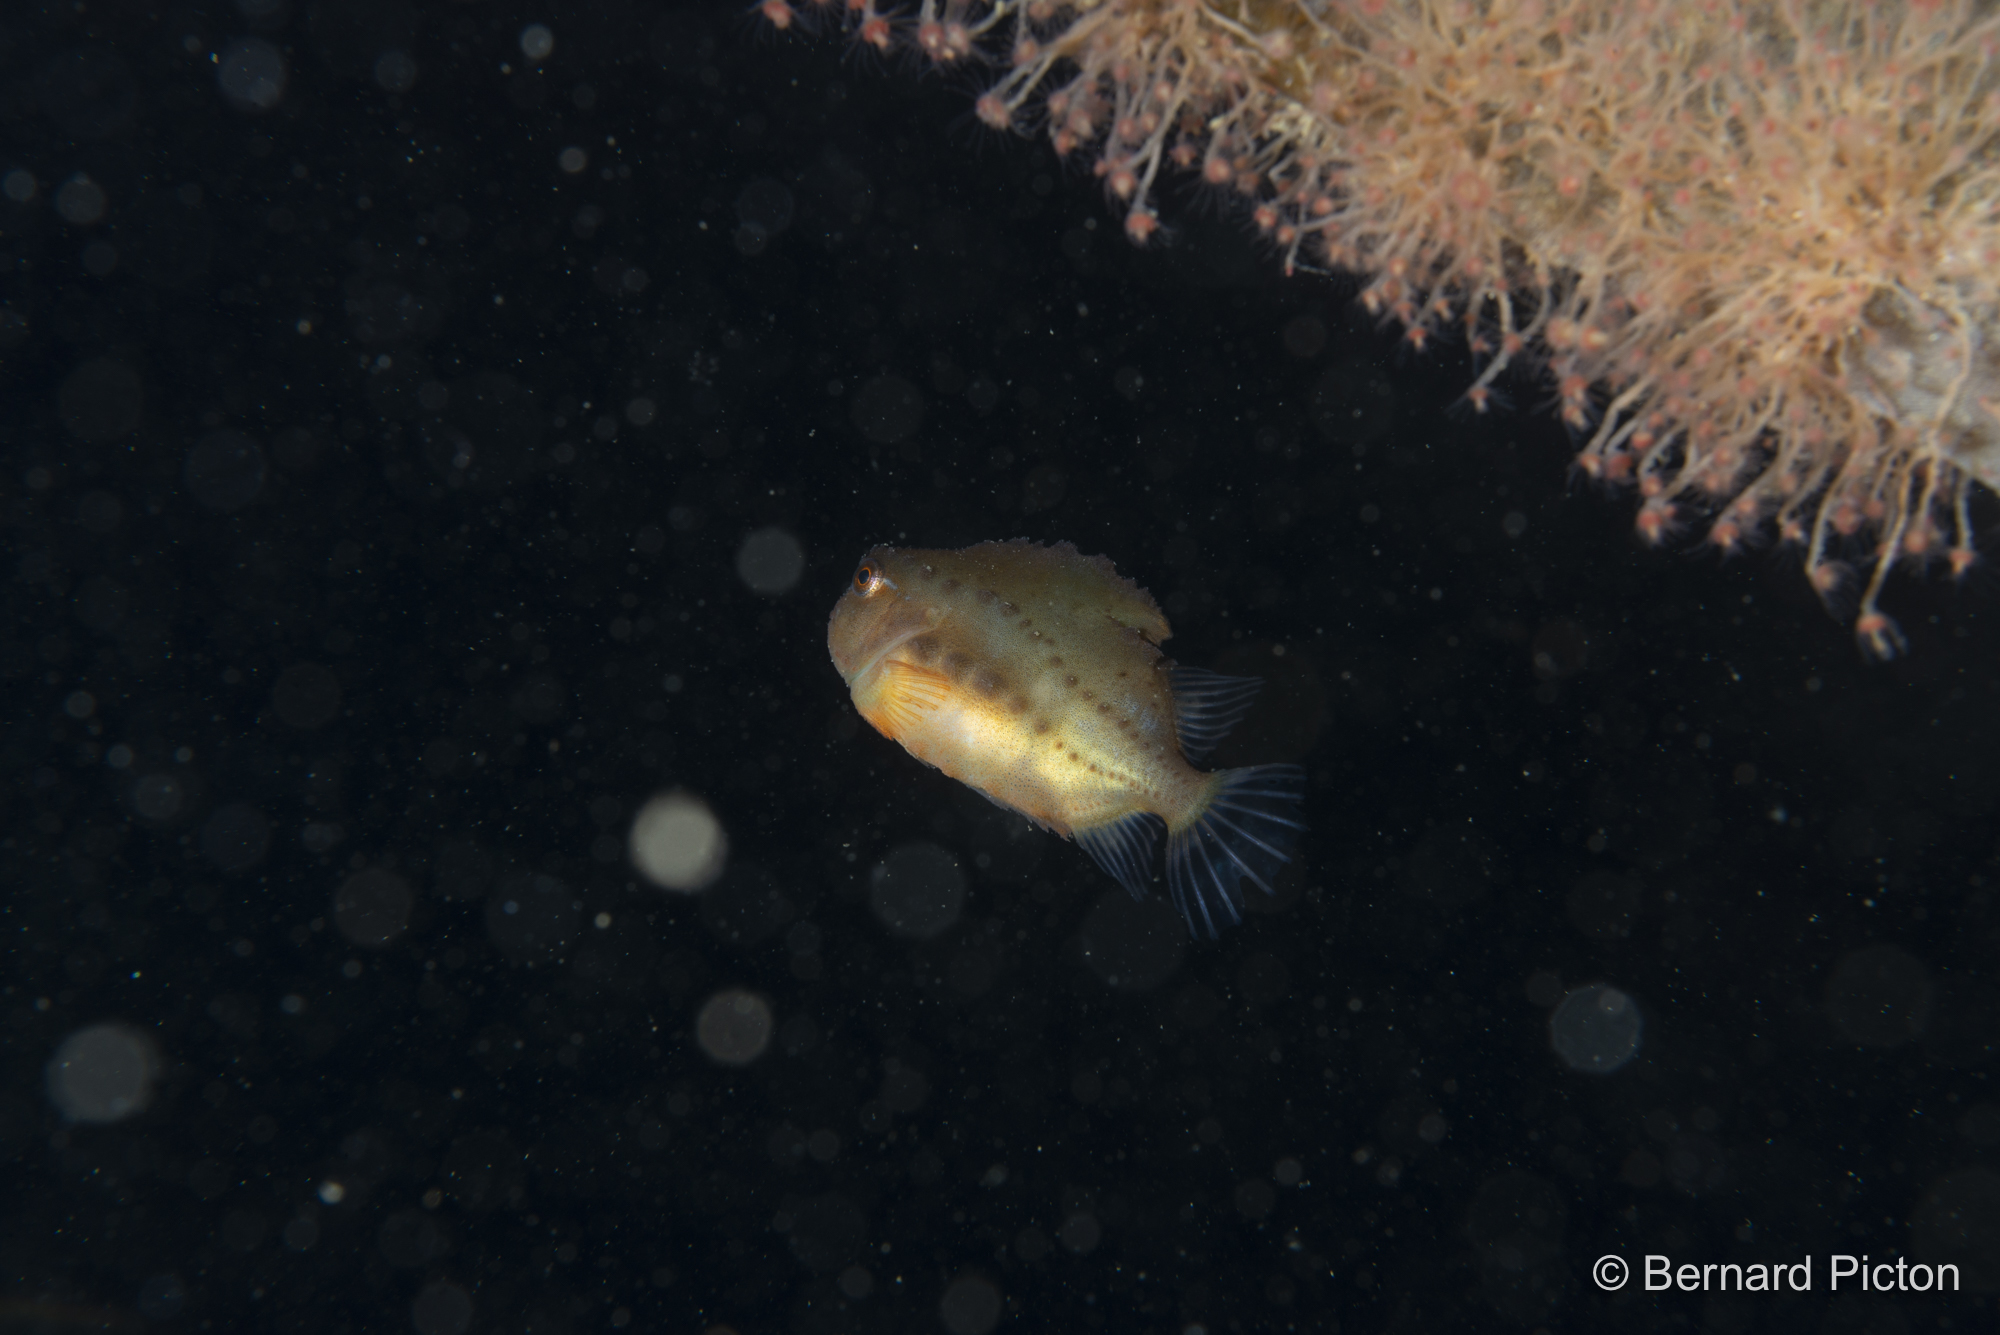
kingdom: Animalia
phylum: Chordata
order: Scorpaeniformes
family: Cyclopteridae
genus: Cyclopterus
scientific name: Cyclopterus lumpus
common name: Lumpsucker
